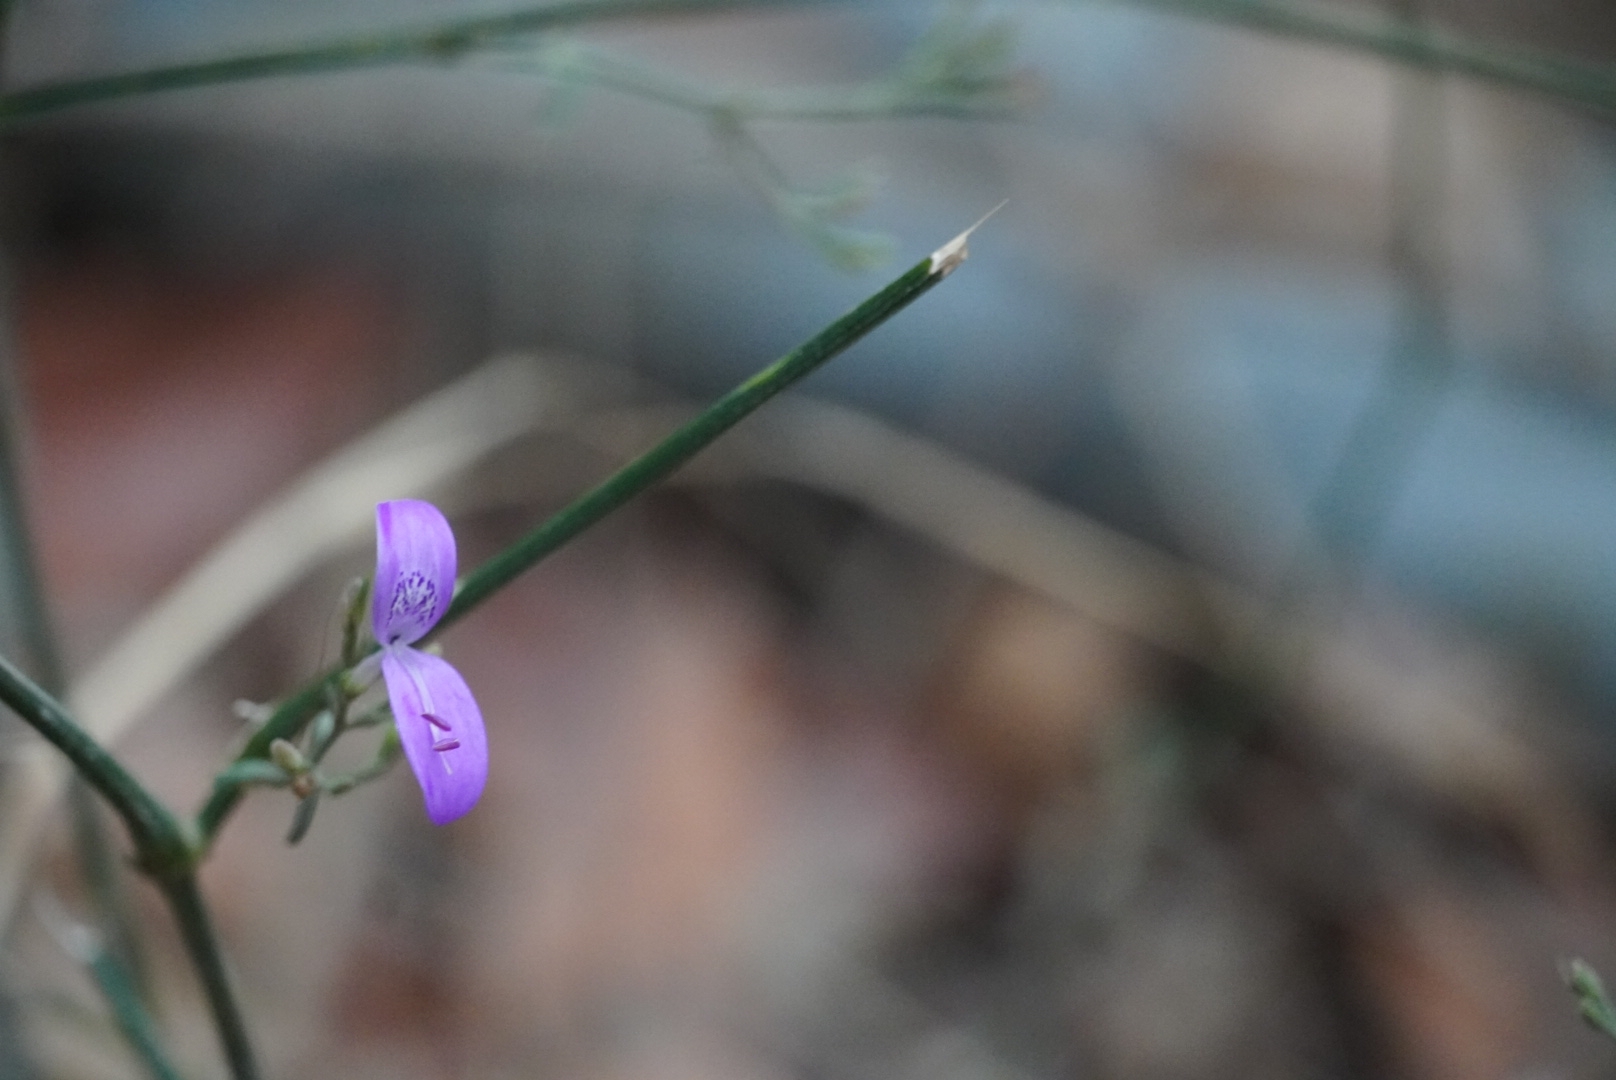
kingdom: Plantae
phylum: Tracheophyta
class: Magnoliopsida
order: Lamiales
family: Acanthaceae
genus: Hypoestes
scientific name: Hypoestes cumingiana
